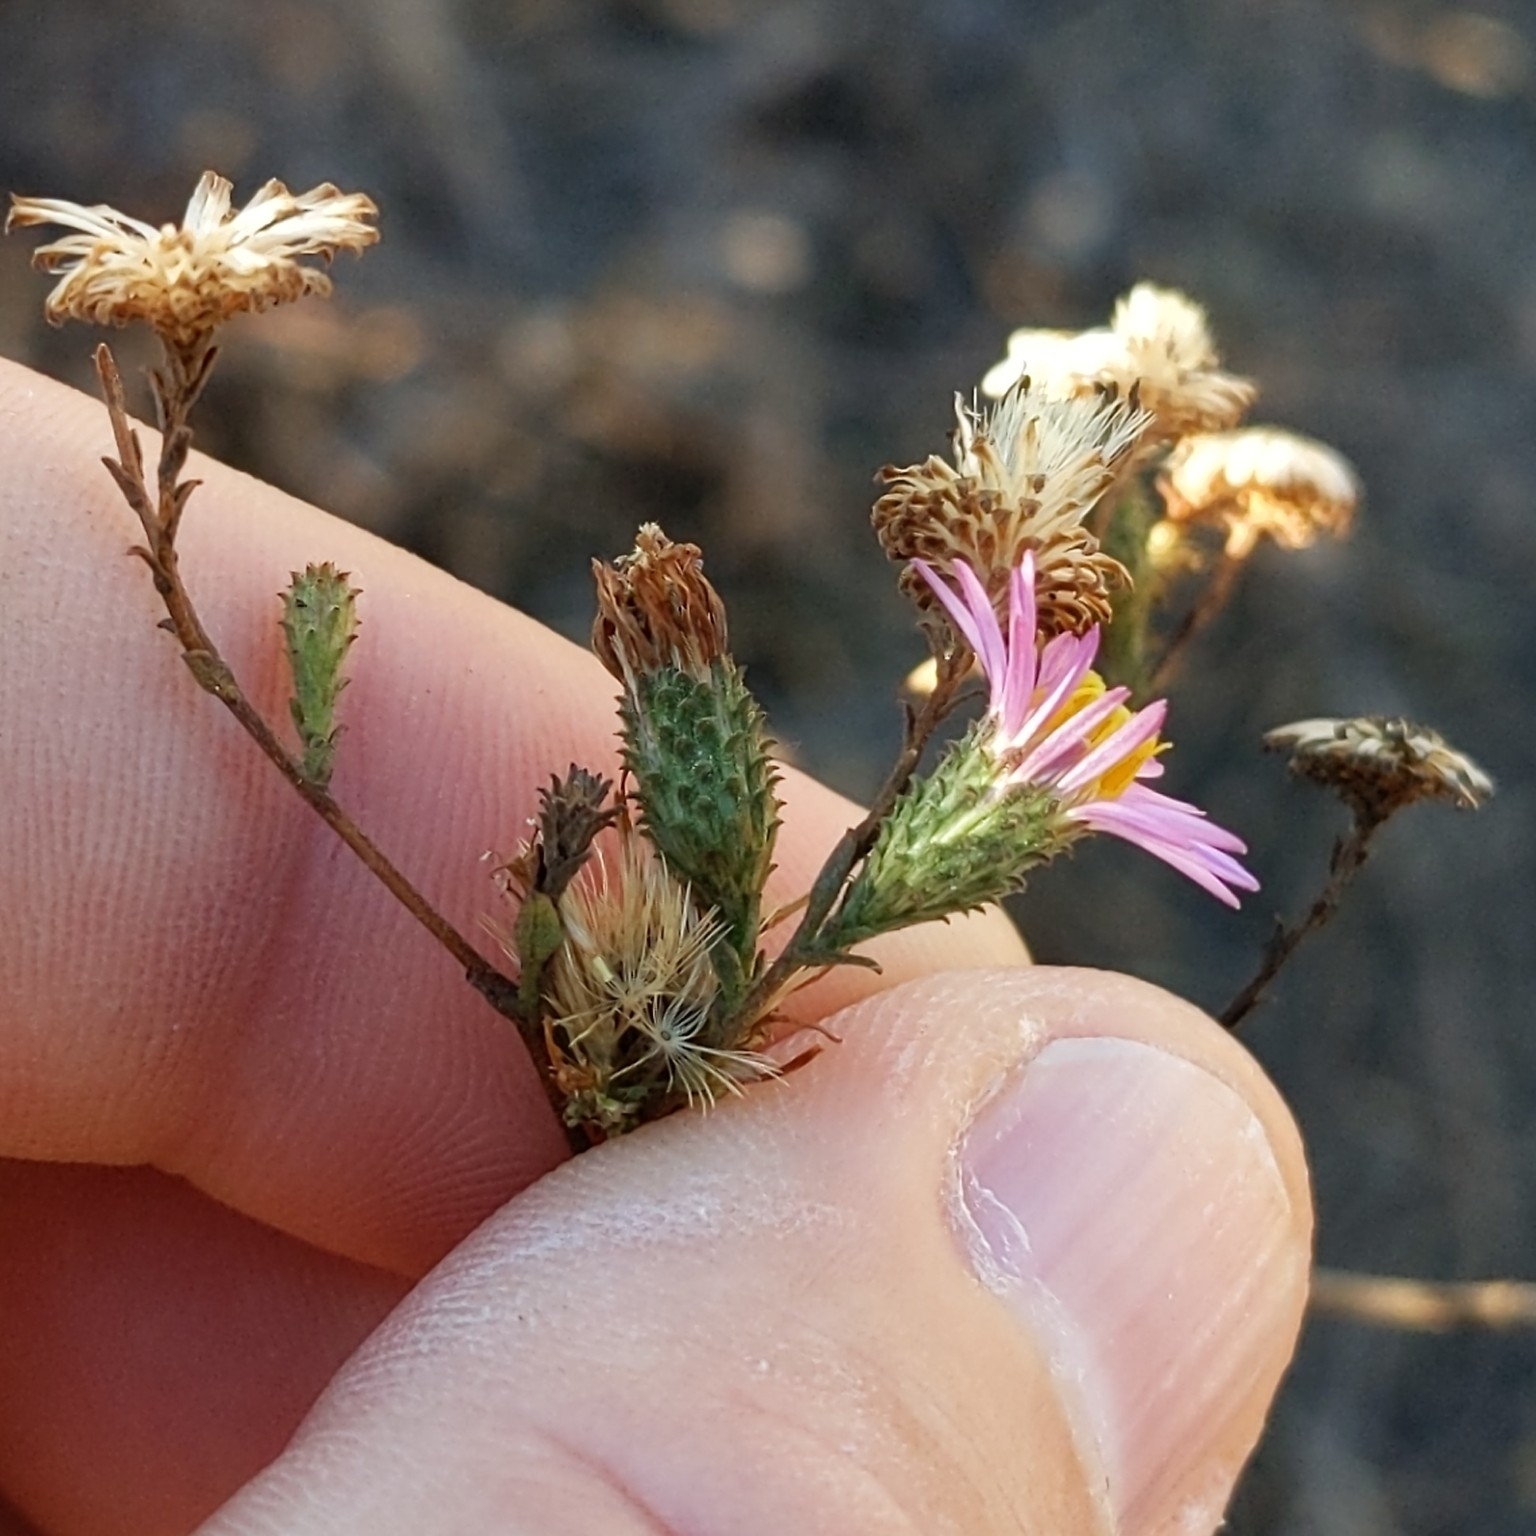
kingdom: Plantae
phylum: Tracheophyta
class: Magnoliopsida
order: Asterales
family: Asteraceae
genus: Corethrogyne
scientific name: Corethrogyne filaginifolia
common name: Sand-aster
